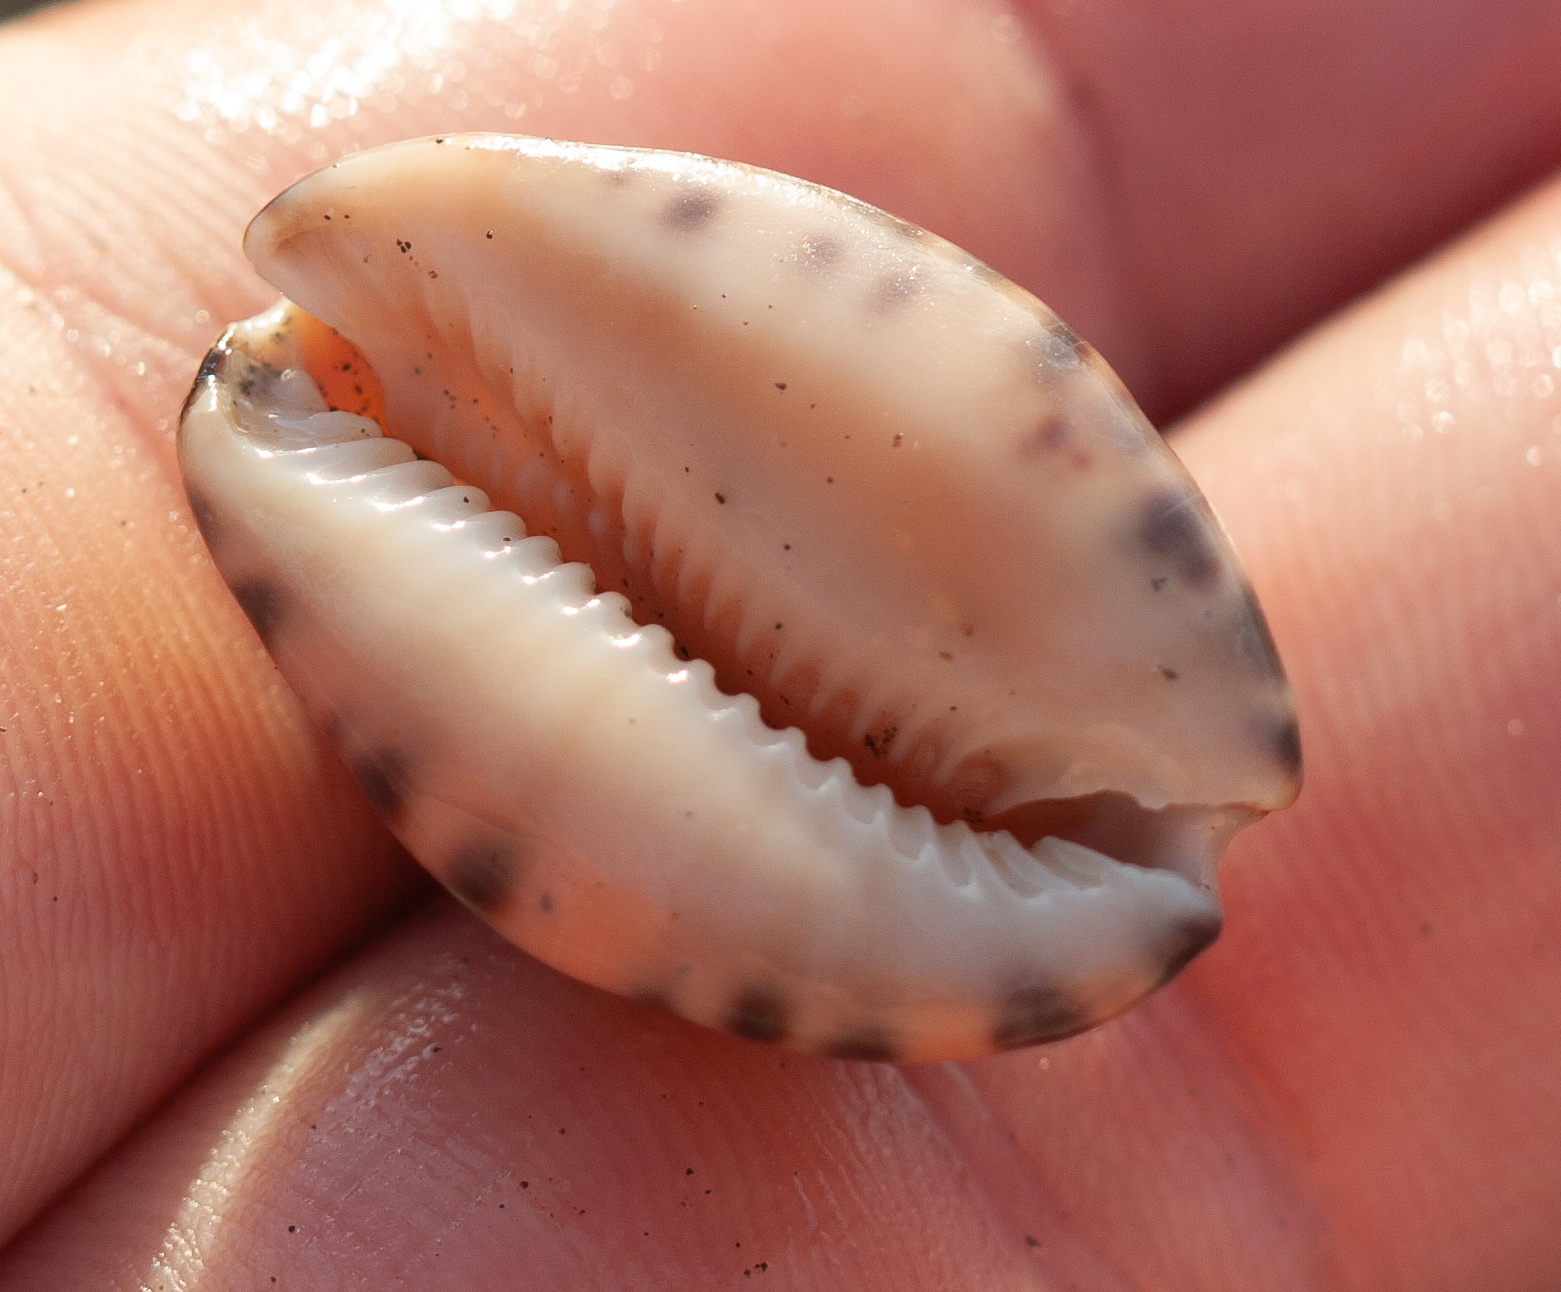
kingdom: Animalia
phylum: Mollusca
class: Gastropoda
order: Littorinimorpha
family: Cypraeidae
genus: Pseudozonaria
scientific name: Pseudozonaria arabicula
